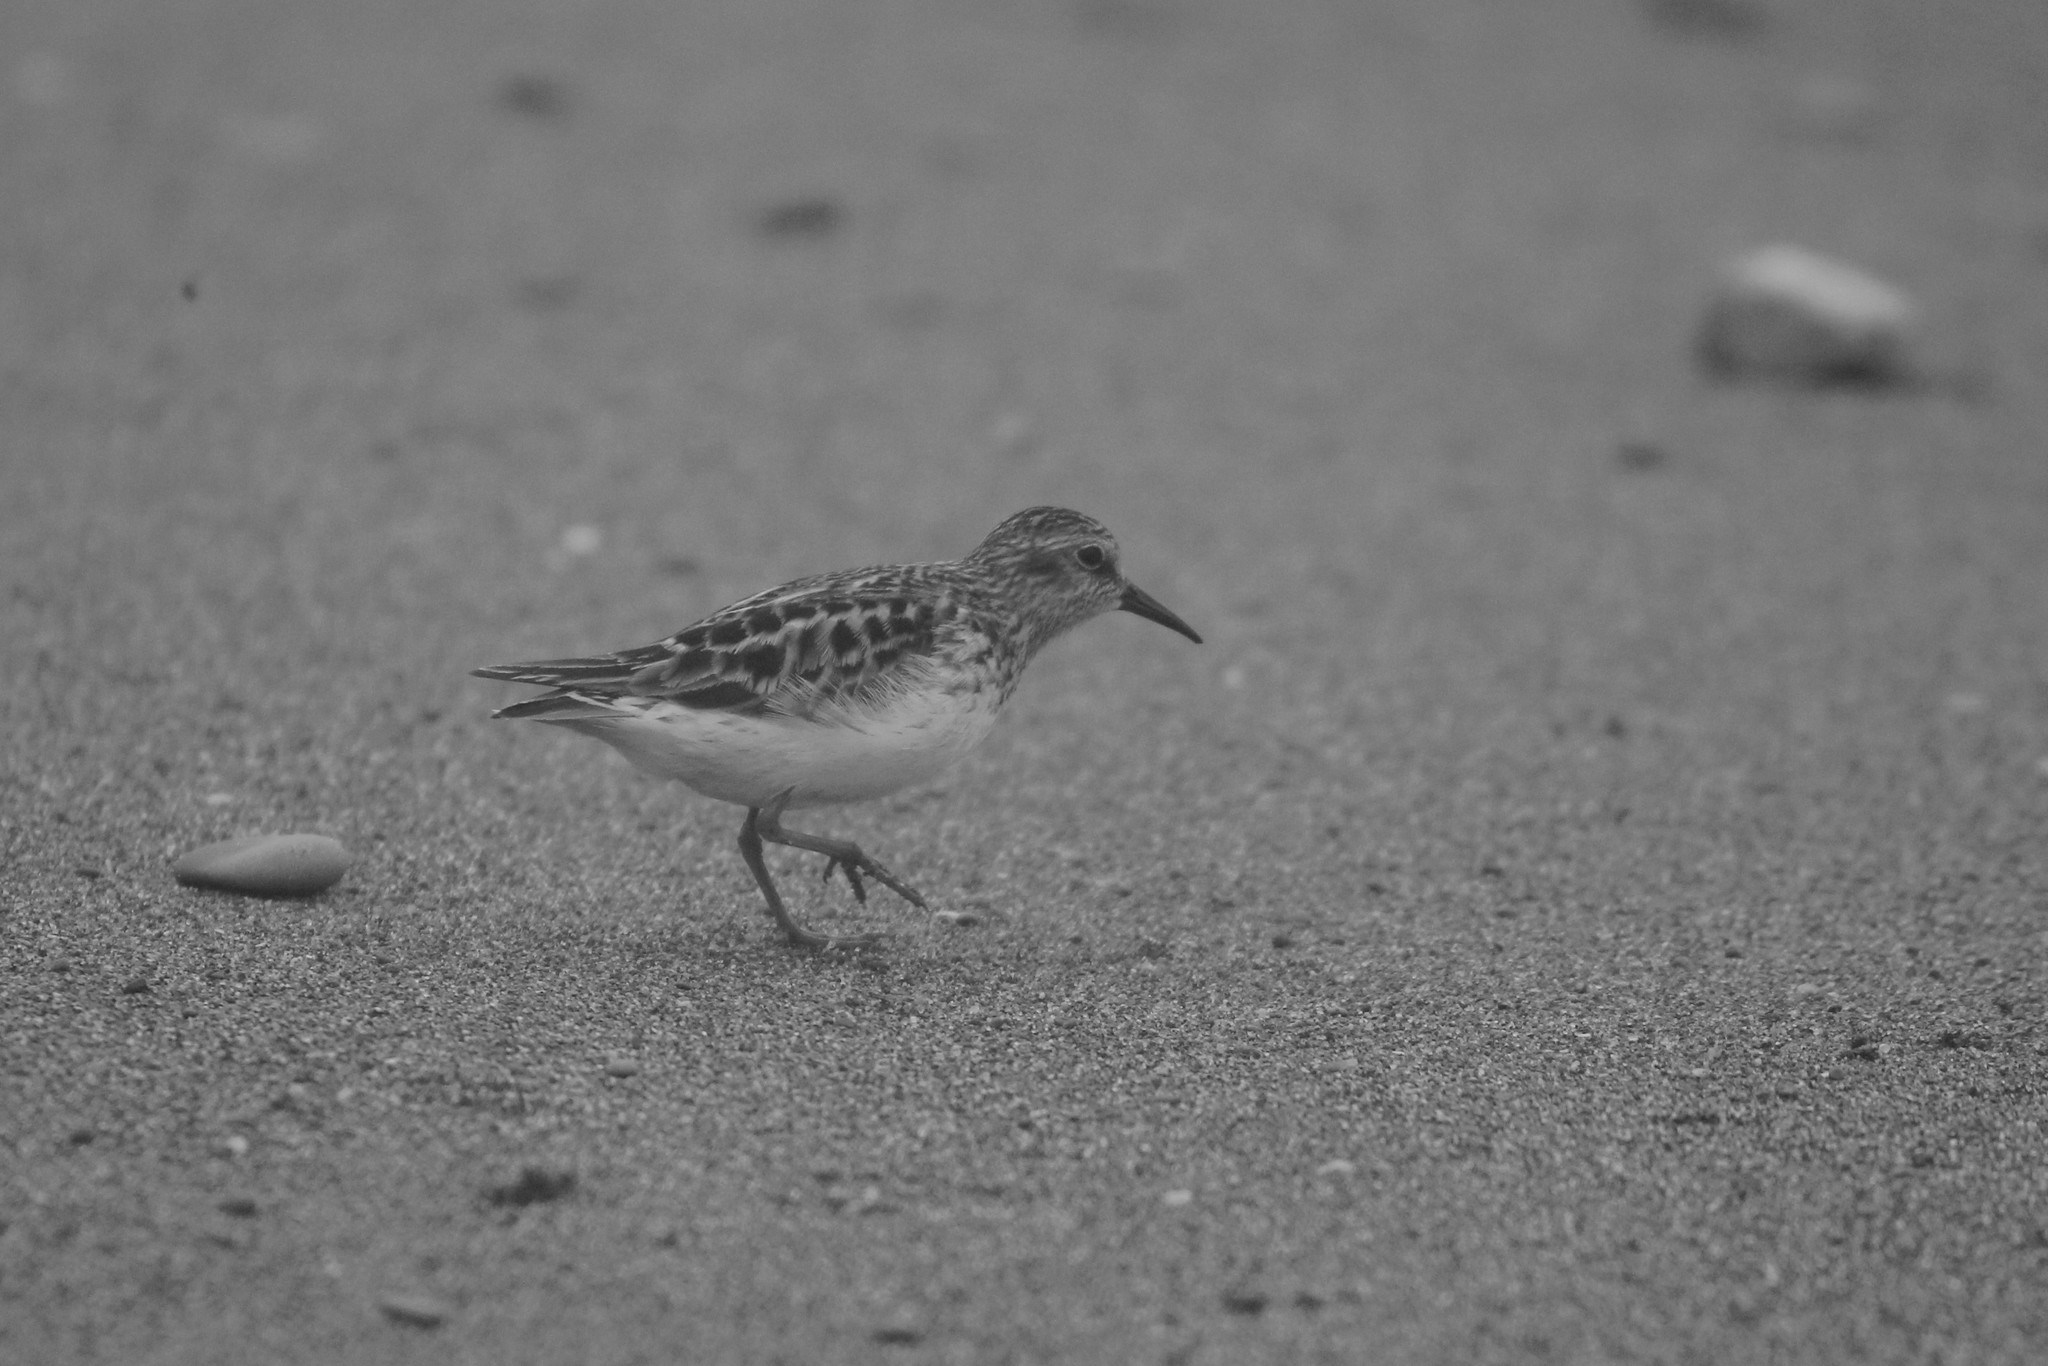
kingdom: Animalia
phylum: Chordata
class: Aves
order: Charadriiformes
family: Scolopacidae
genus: Calidris
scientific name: Calidris minutilla
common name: Least sandpiper
